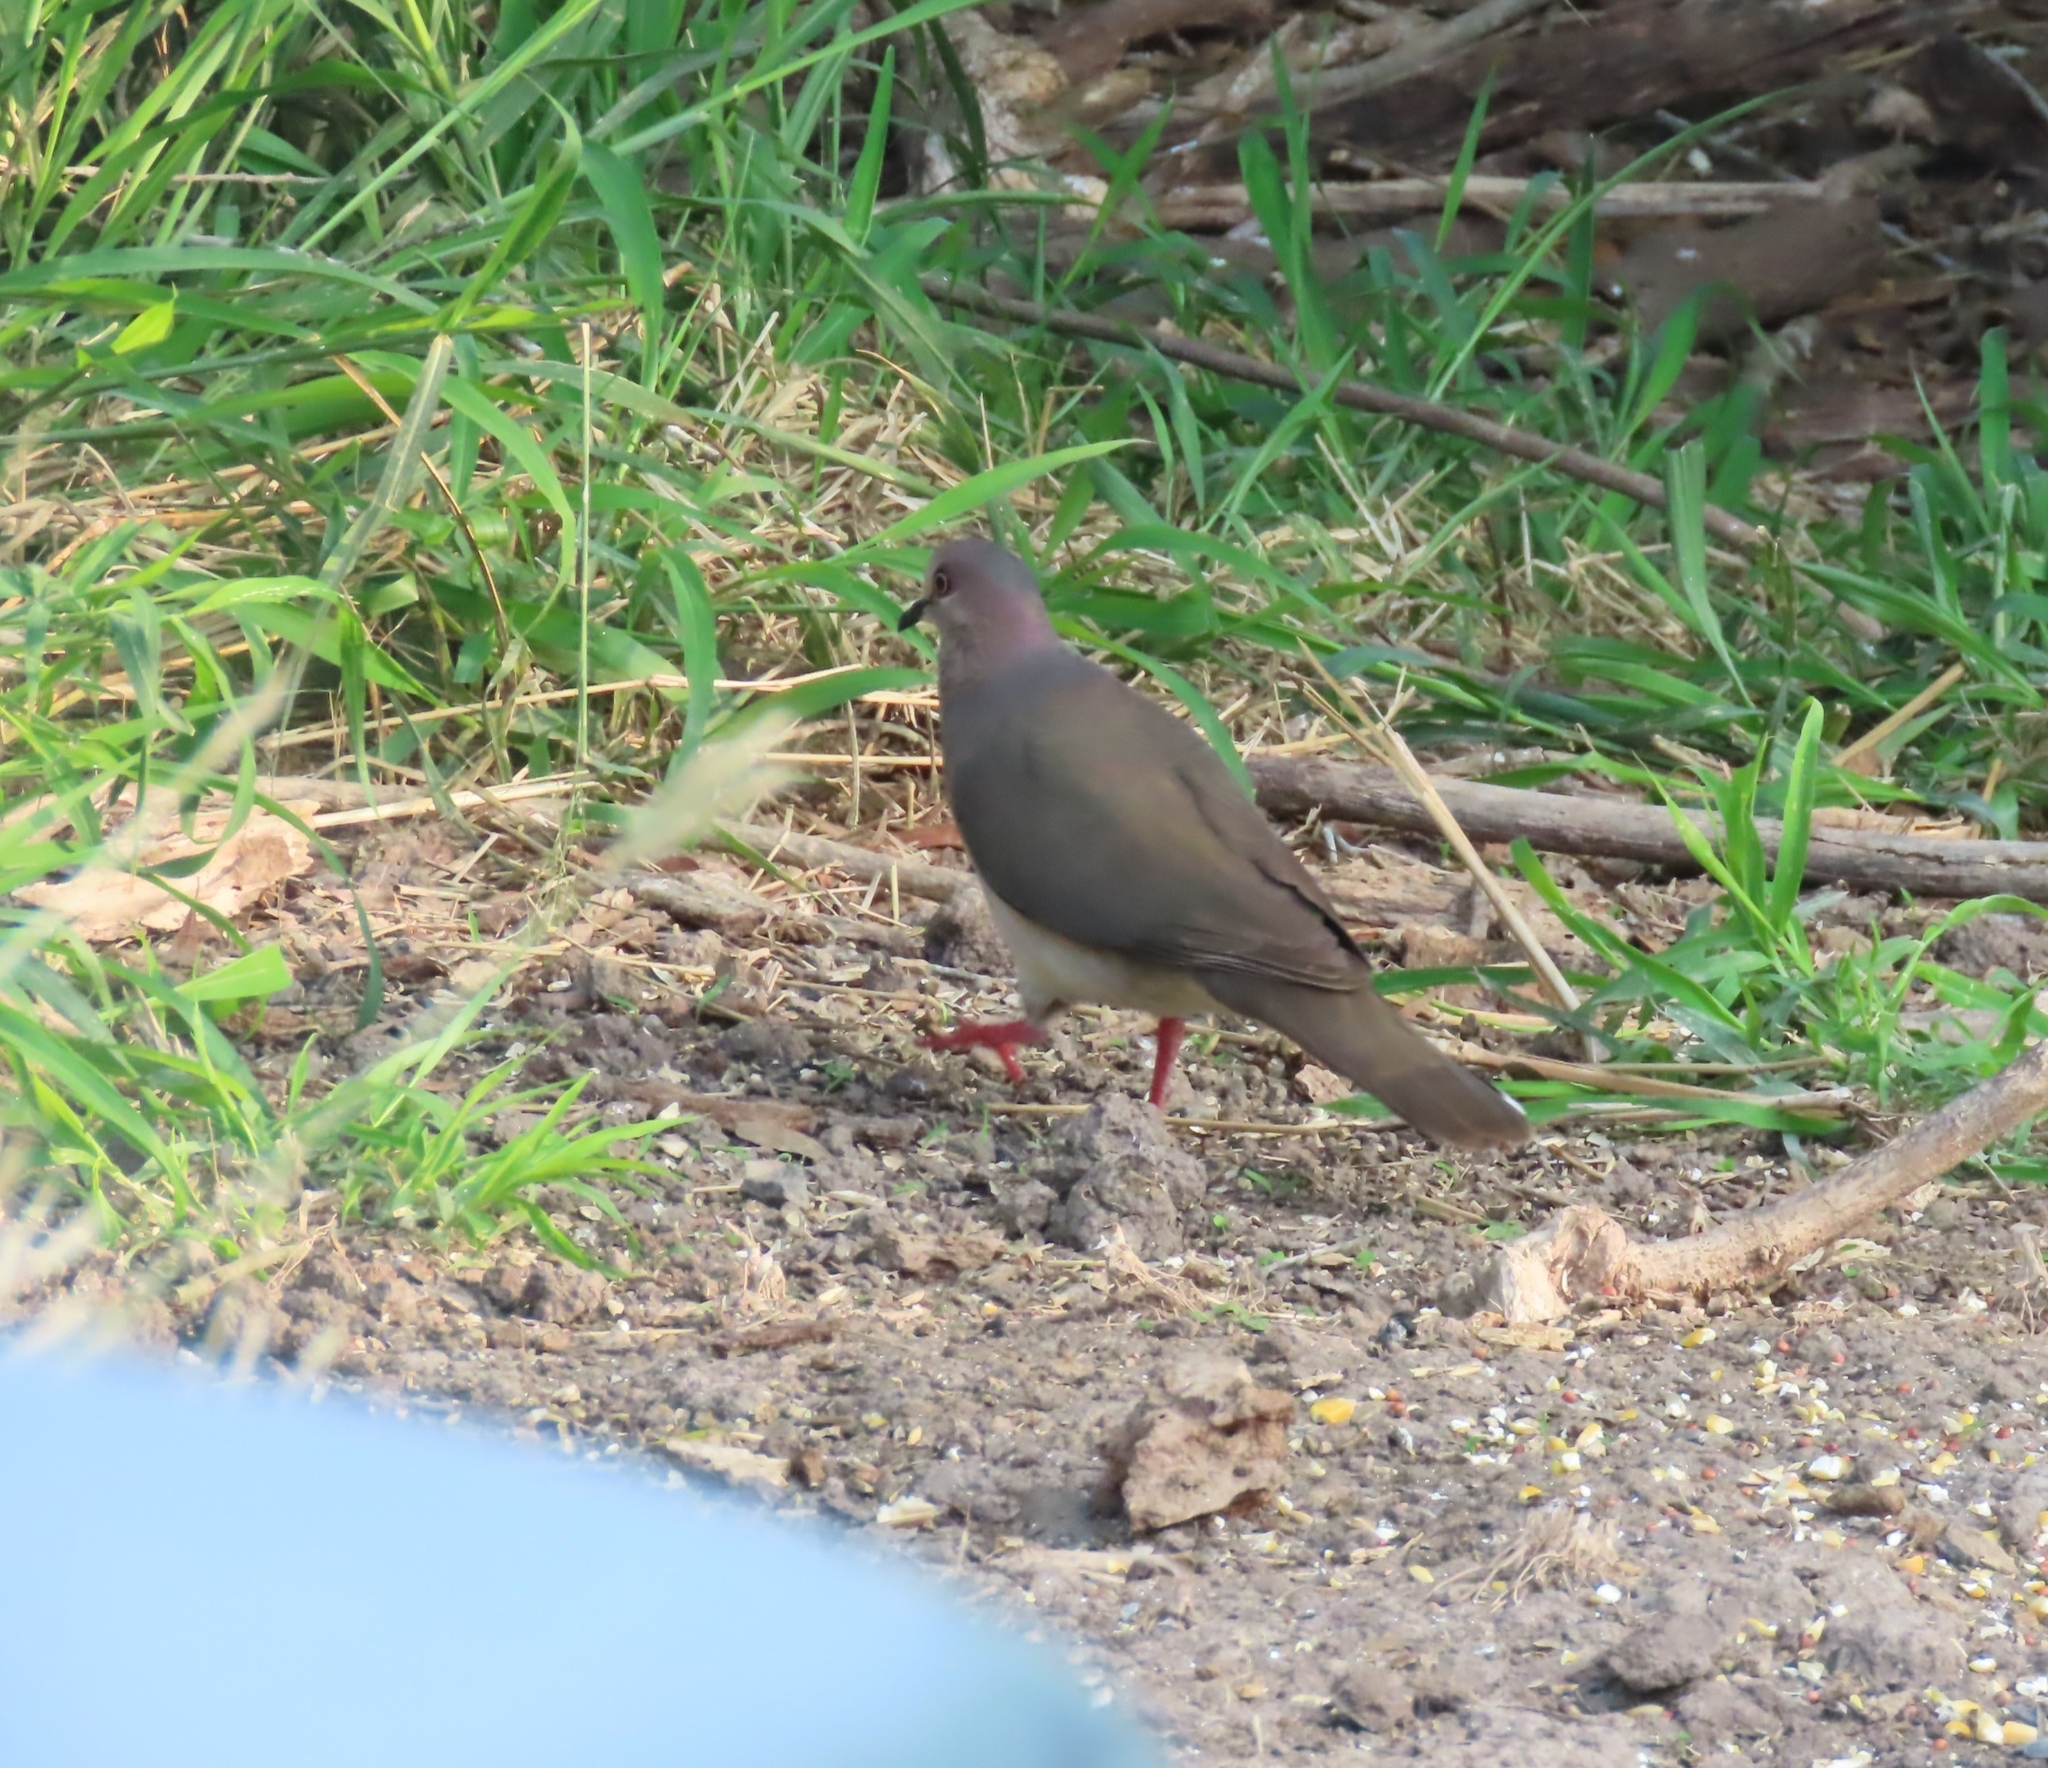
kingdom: Animalia
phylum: Chordata
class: Aves
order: Columbiformes
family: Columbidae
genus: Leptotila
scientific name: Leptotila verreauxi
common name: White-tipped dove
